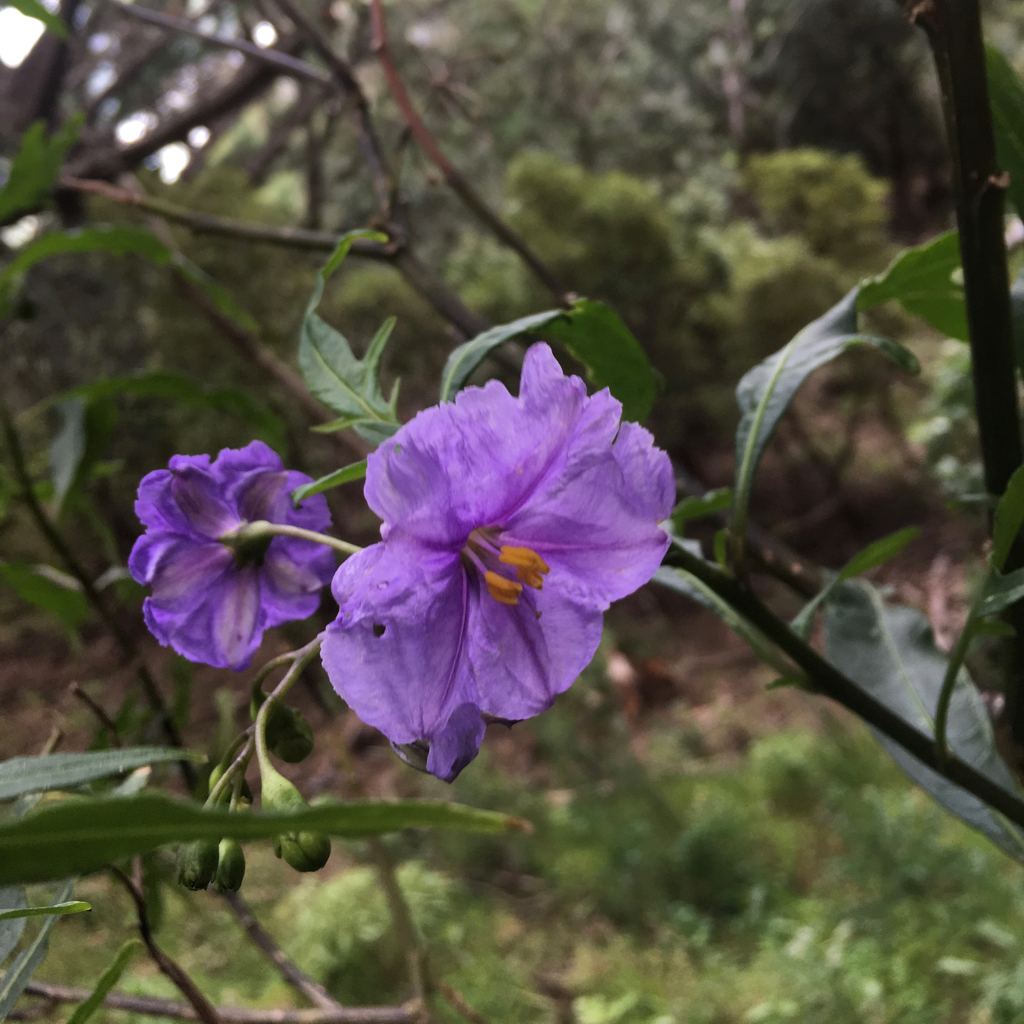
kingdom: Plantae
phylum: Tracheophyta
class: Magnoliopsida
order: Solanales
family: Solanaceae
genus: Solanum
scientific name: Solanum laciniatum
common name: Kangaroo-apple
